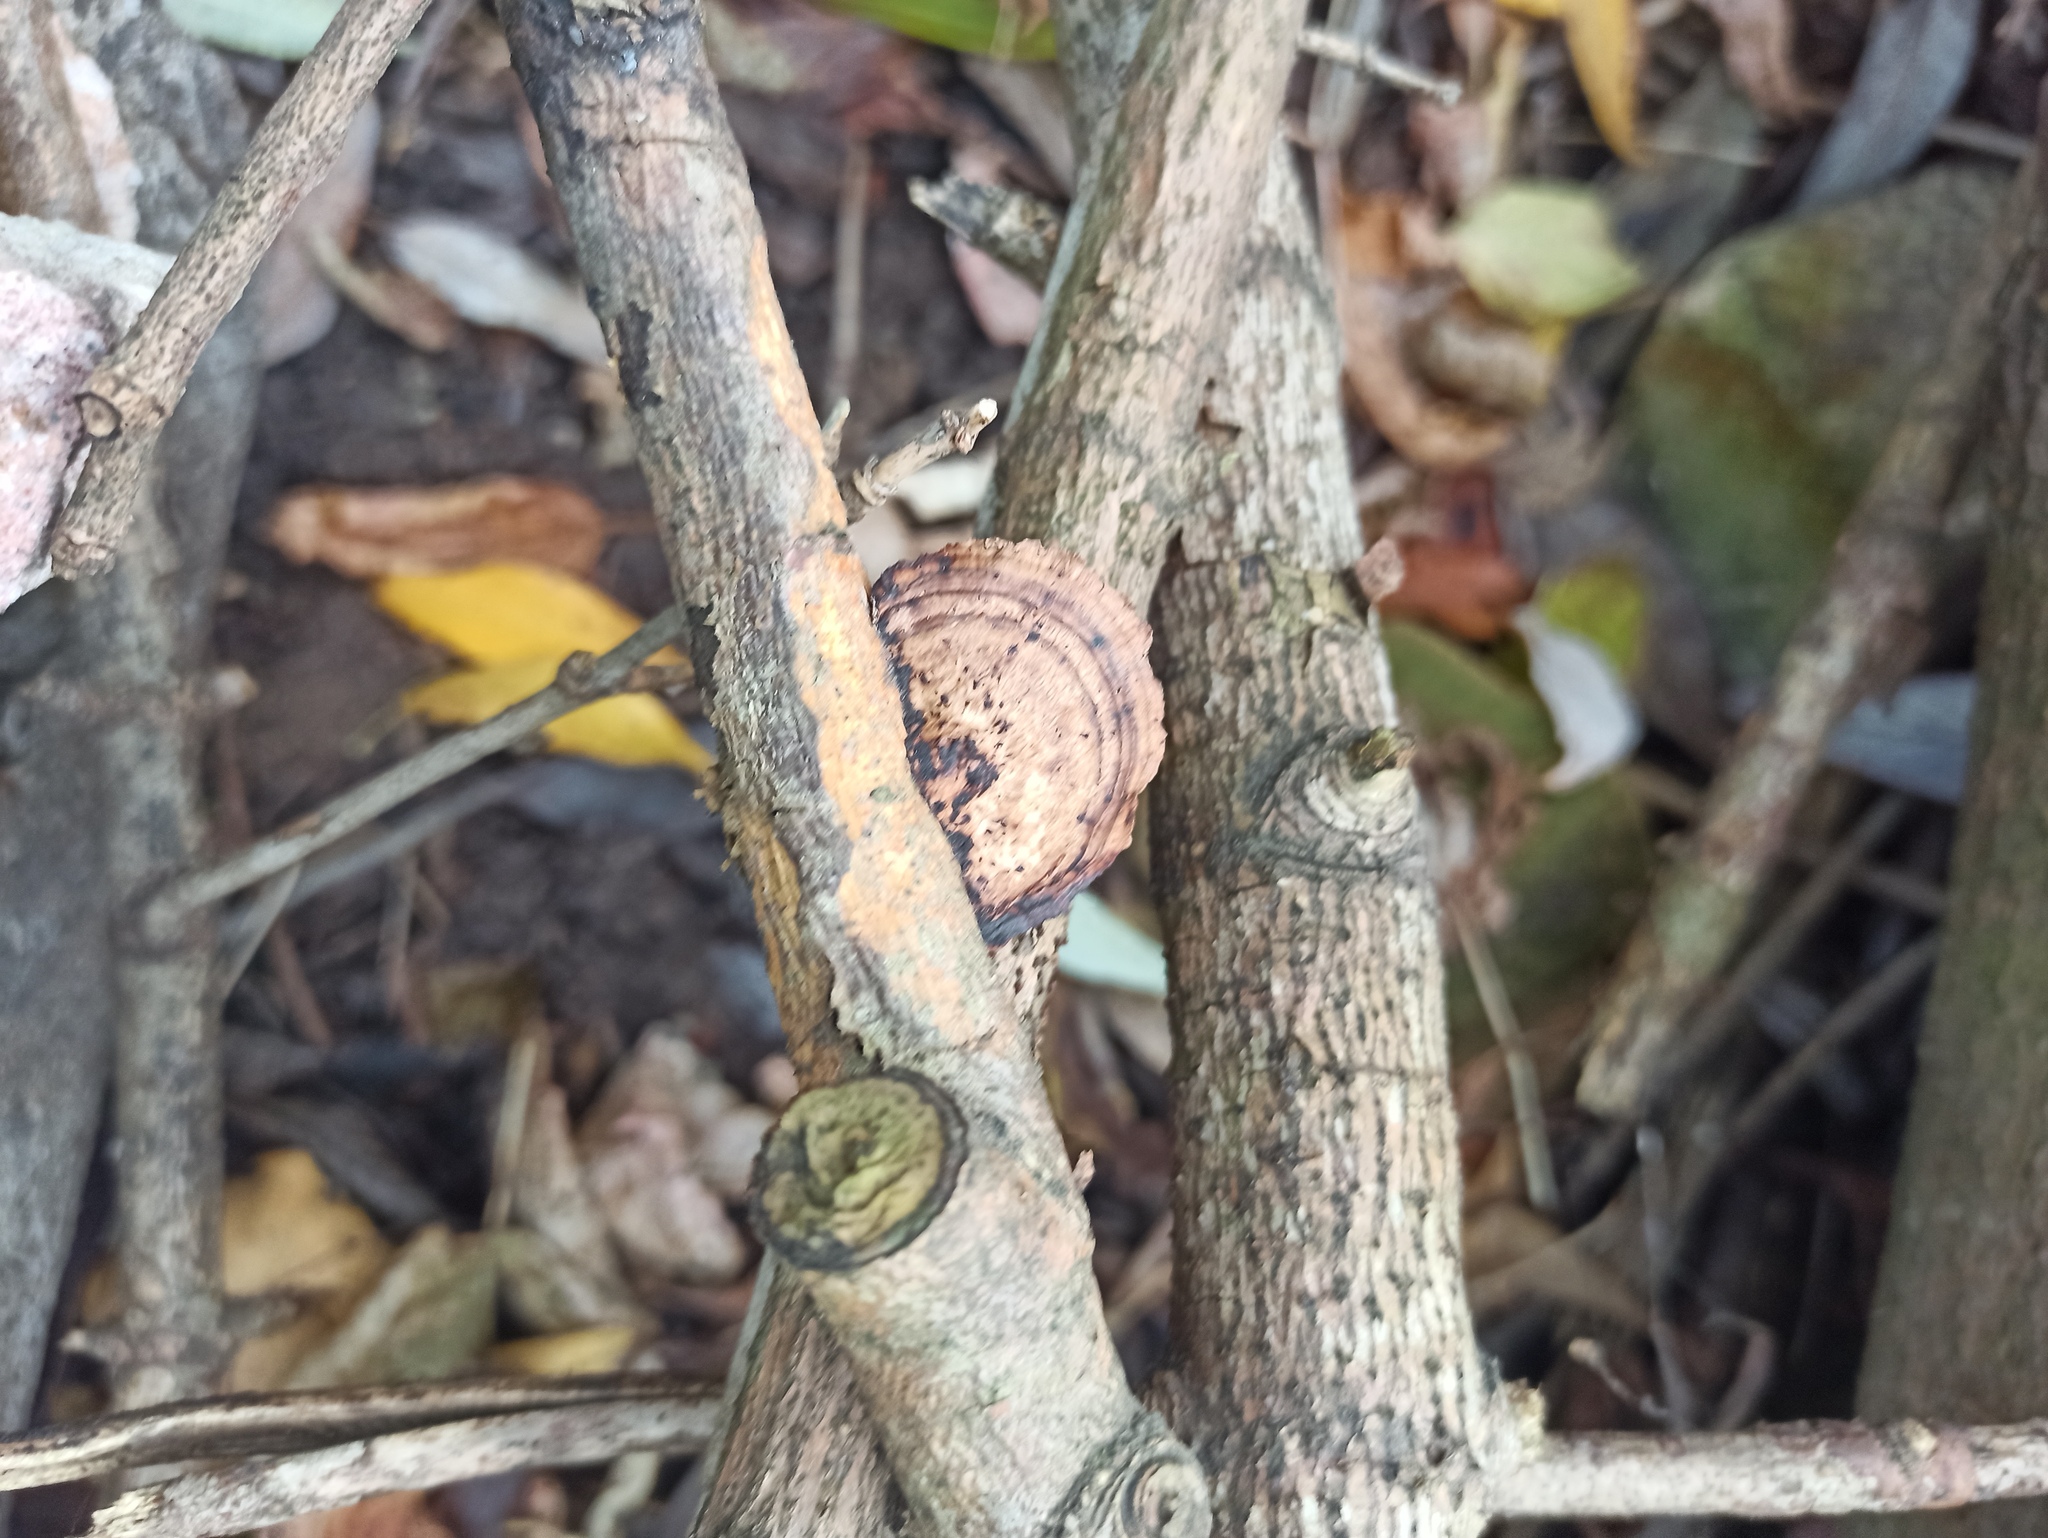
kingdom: Fungi
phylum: Basidiomycota
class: Agaricomycetes
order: Polyporales
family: Polyporaceae
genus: Daedaleopsis
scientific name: Daedaleopsis confragosa
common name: Blushing bracket
